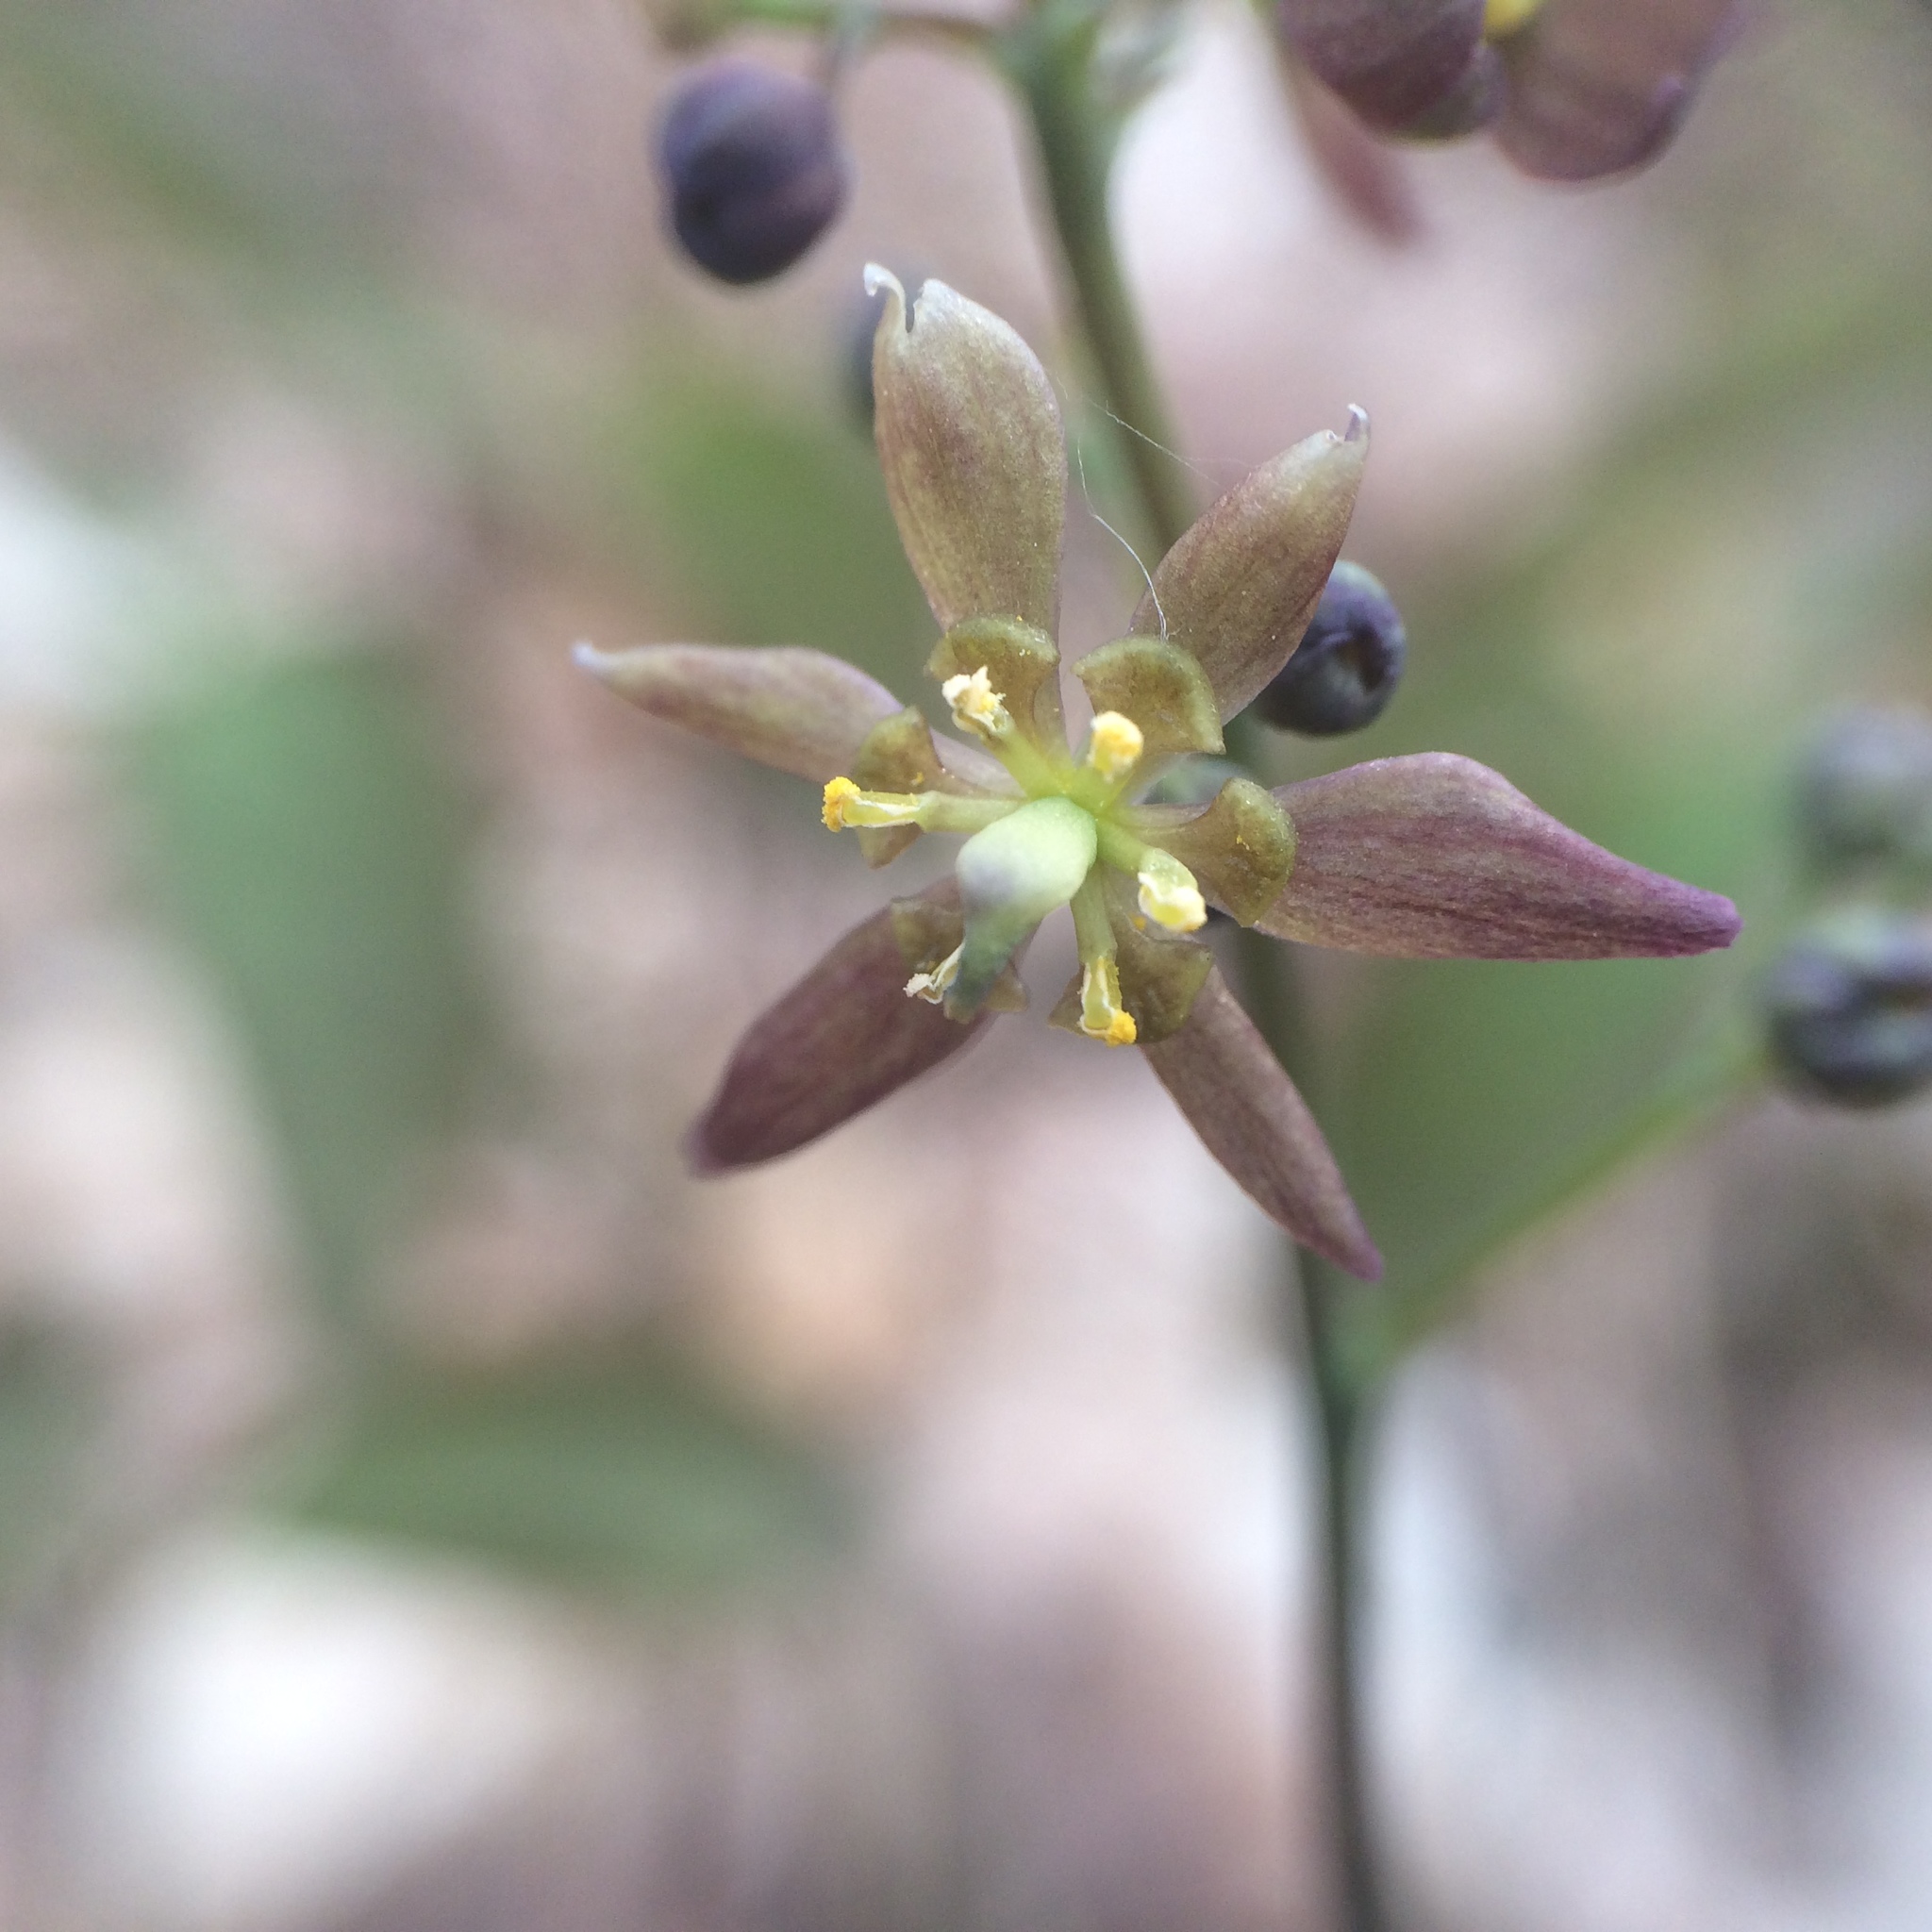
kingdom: Plantae
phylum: Tracheophyta
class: Magnoliopsida
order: Ranunculales
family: Berberidaceae
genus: Caulophyllum
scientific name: Caulophyllum
